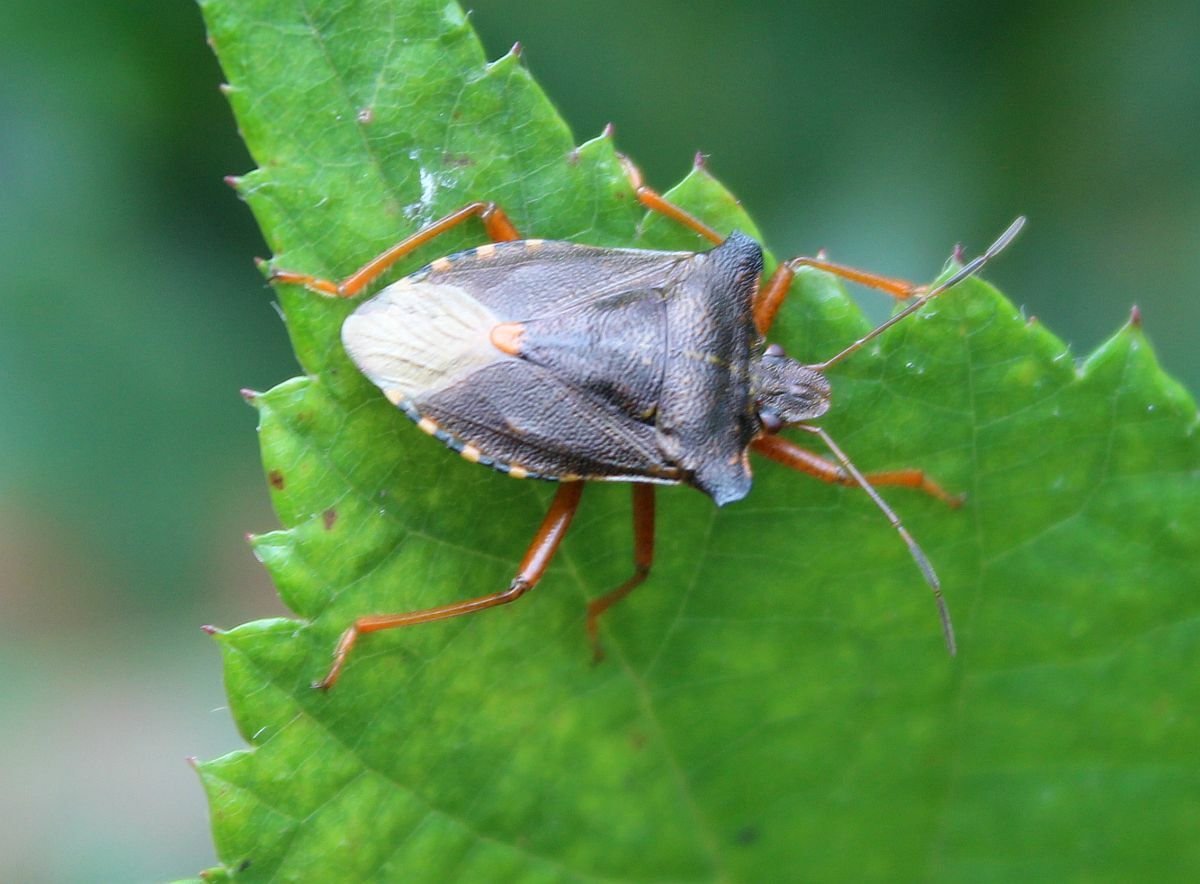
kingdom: Animalia
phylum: Arthropoda
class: Insecta
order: Hemiptera
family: Pentatomidae
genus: Pentatoma
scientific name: Pentatoma rufipes
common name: Forest bug
